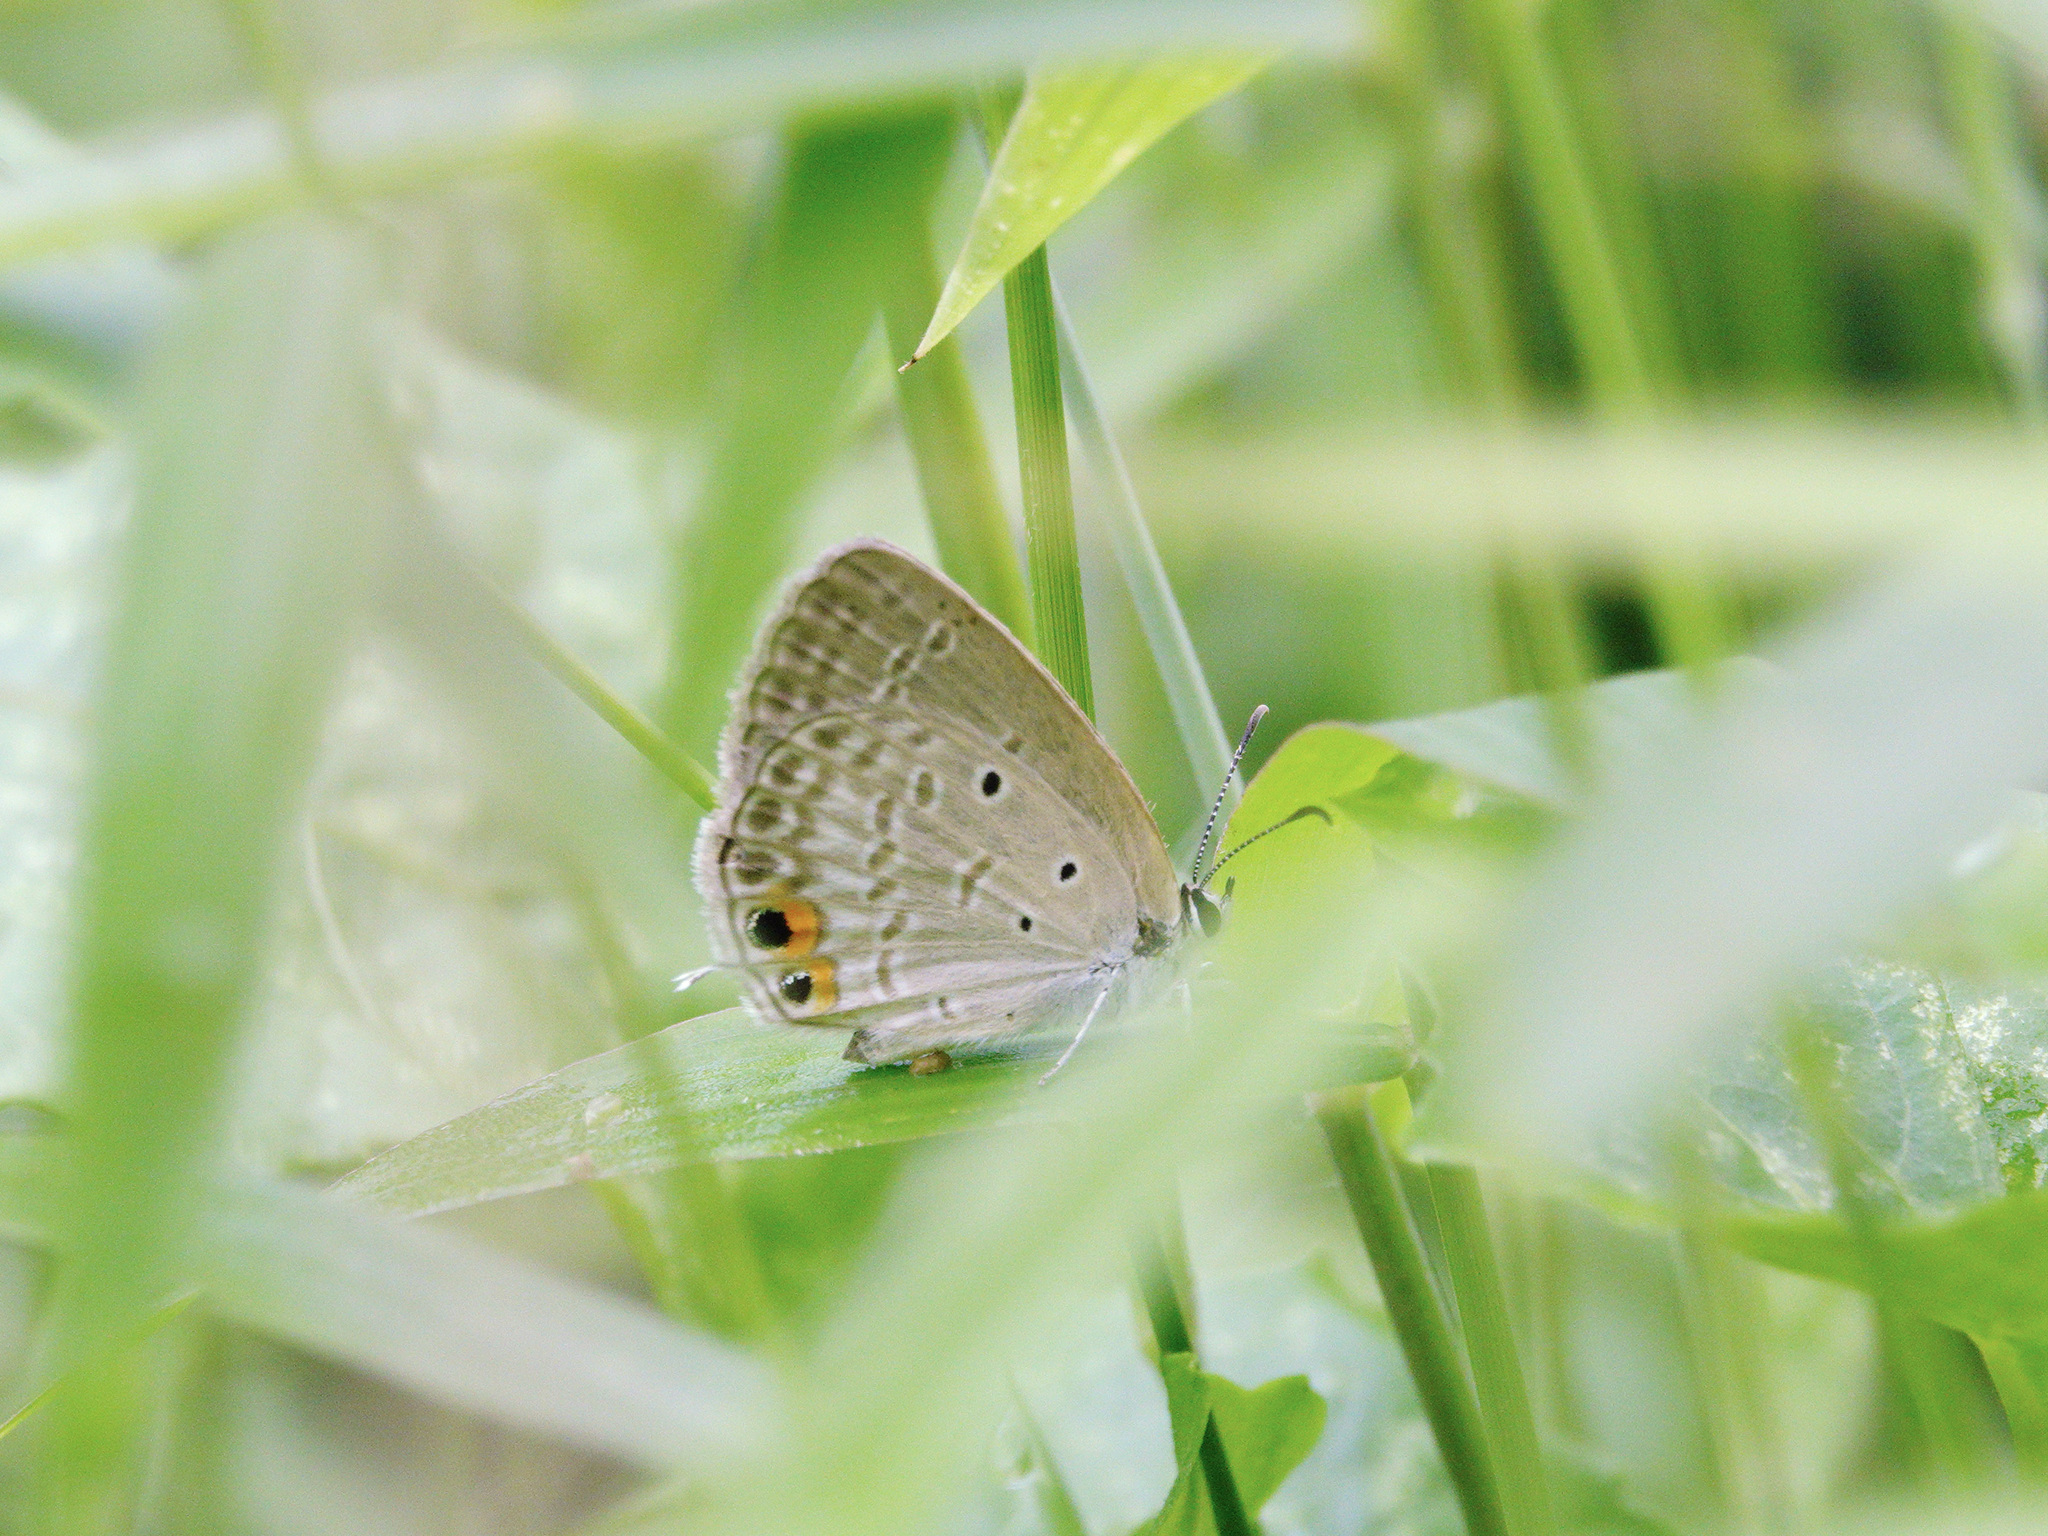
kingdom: Animalia
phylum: Arthropoda
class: Insecta
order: Lepidoptera
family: Lycaenidae
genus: Euchrysops
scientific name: Euchrysops cnejus
